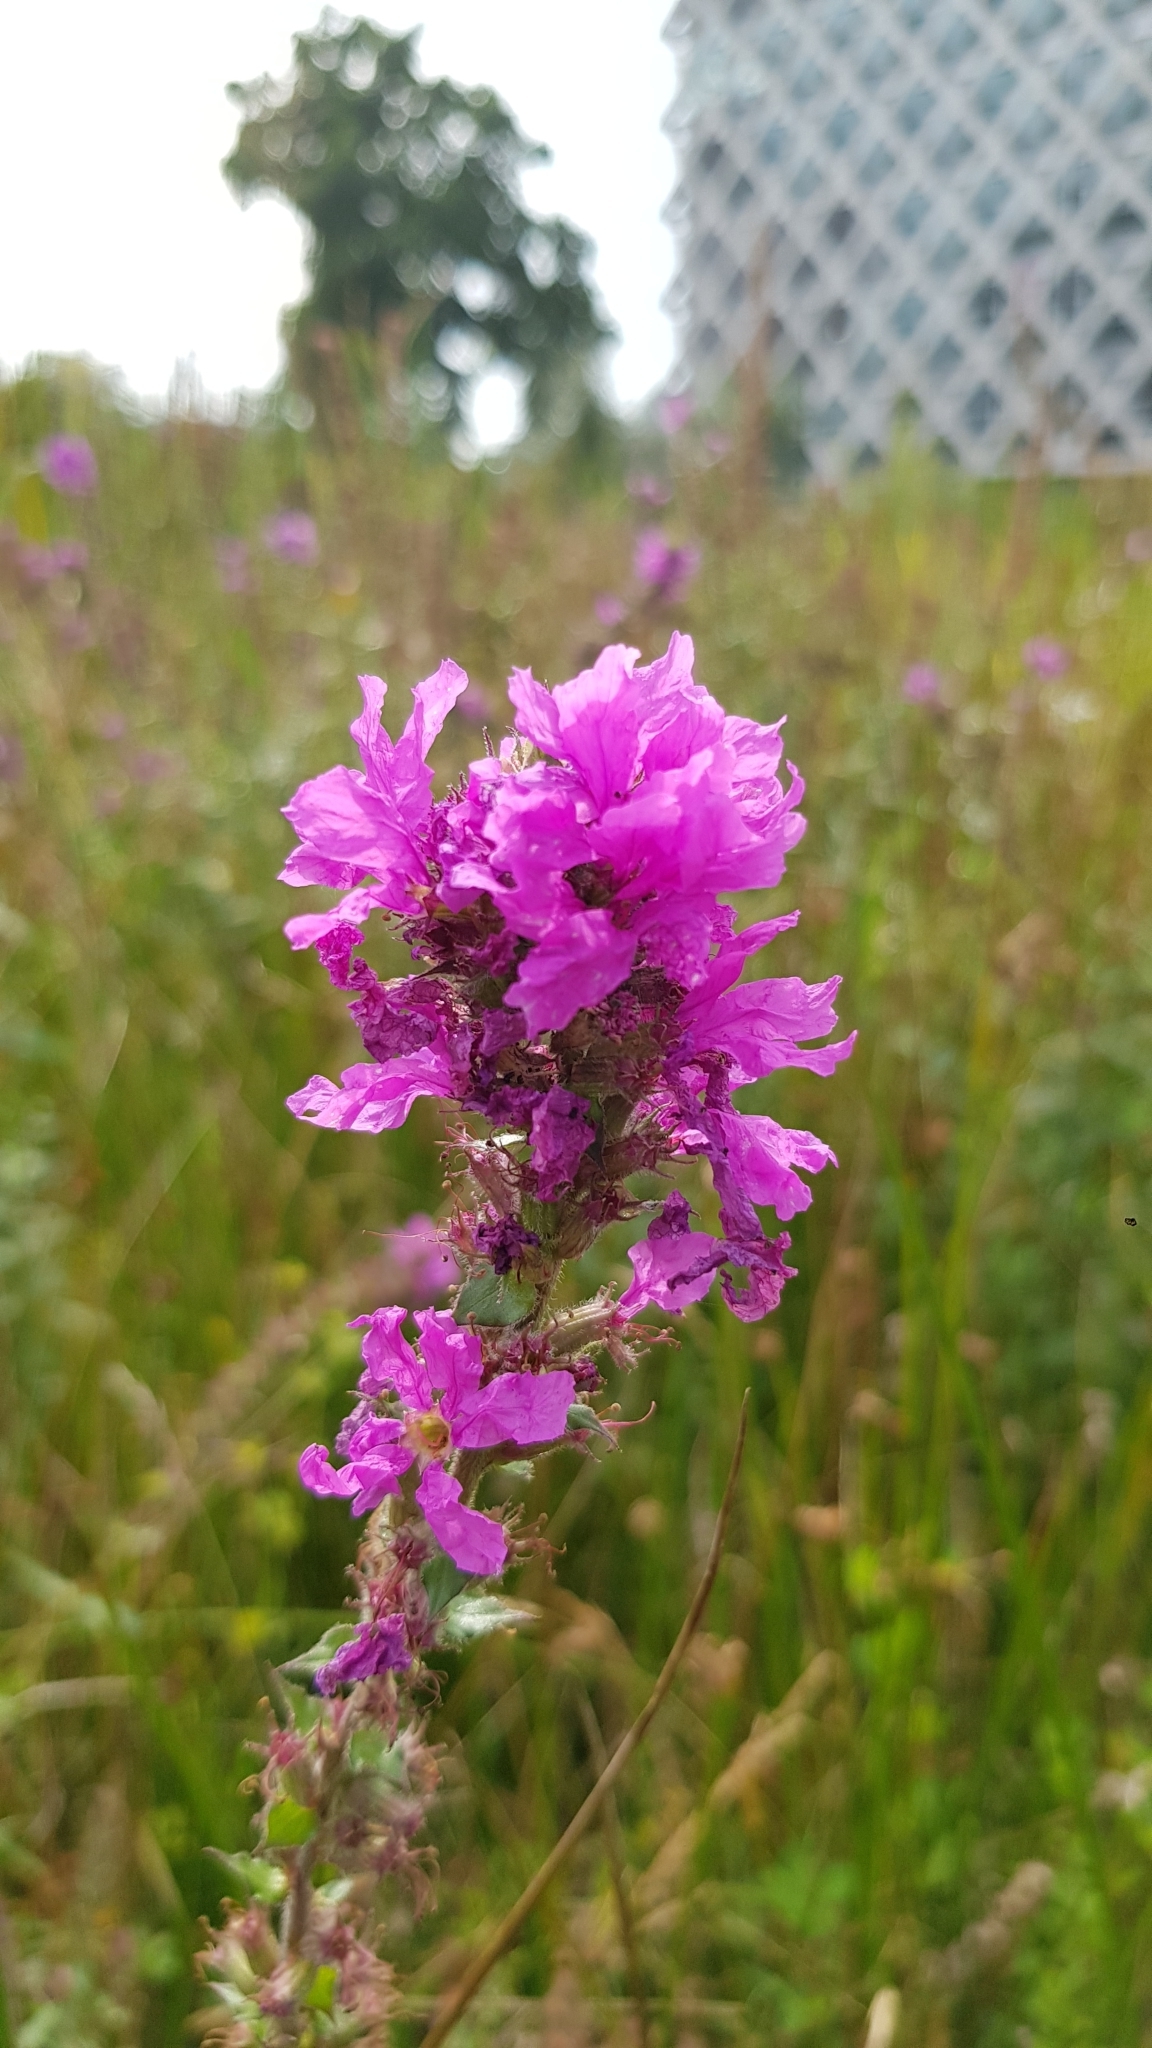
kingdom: Plantae
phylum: Tracheophyta
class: Magnoliopsida
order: Myrtales
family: Lythraceae
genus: Lythrum
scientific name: Lythrum salicaria
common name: Purple loosestrife
